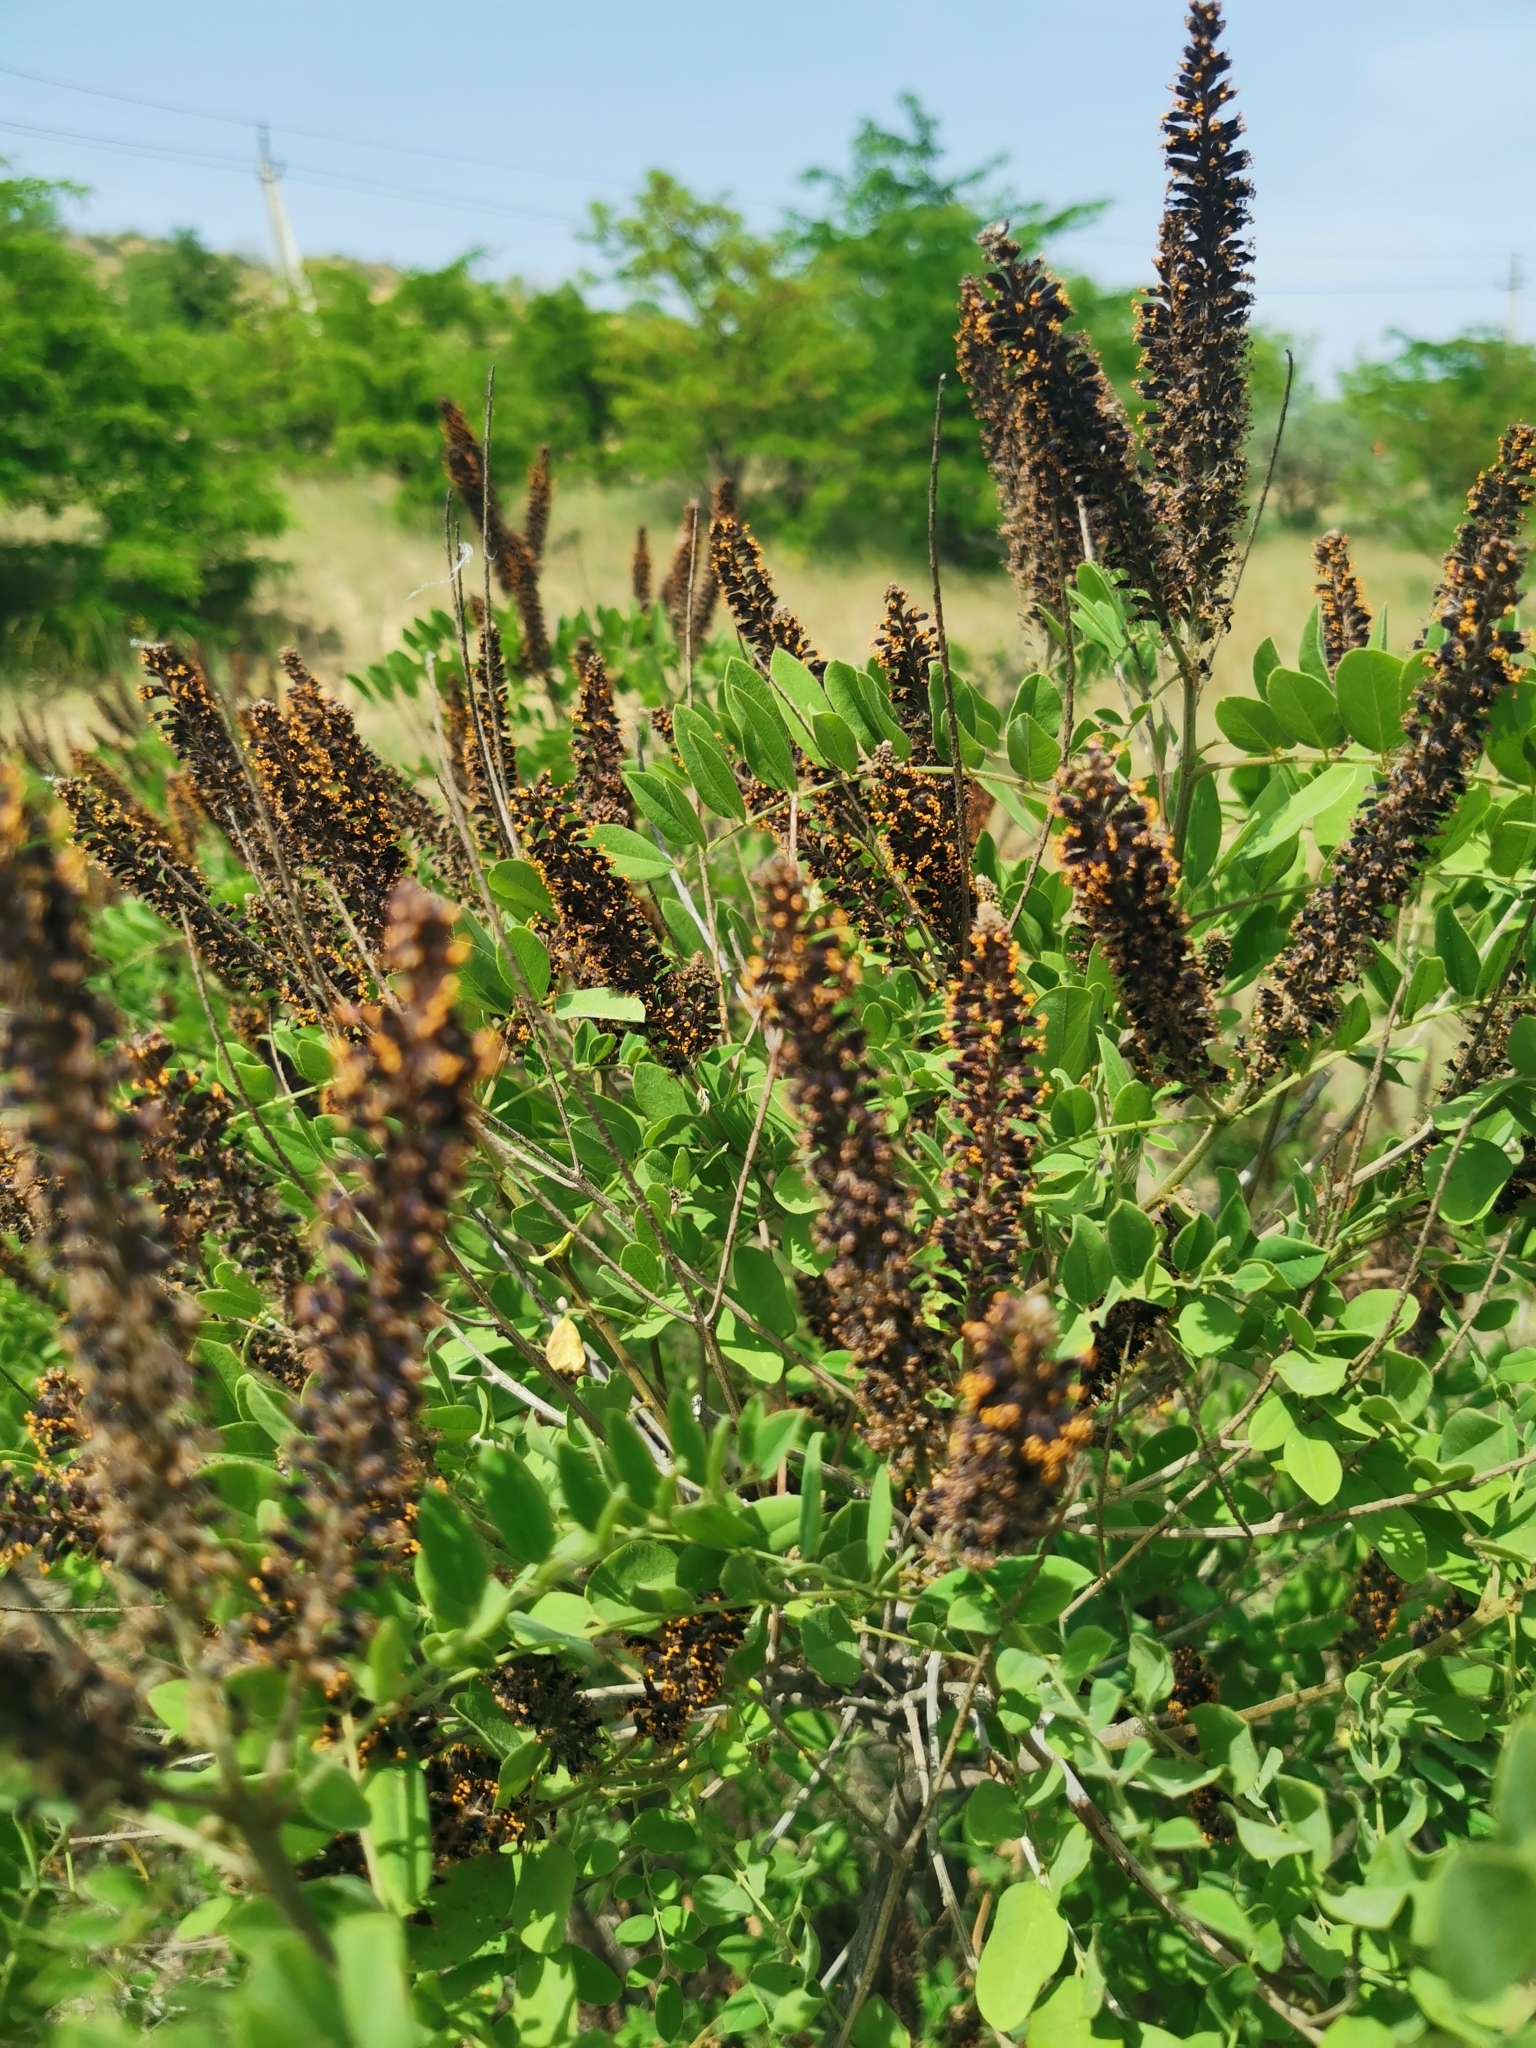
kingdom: Plantae
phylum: Tracheophyta
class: Magnoliopsida
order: Fabales
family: Fabaceae
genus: Amorpha
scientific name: Amorpha fruticosa
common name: False indigo
